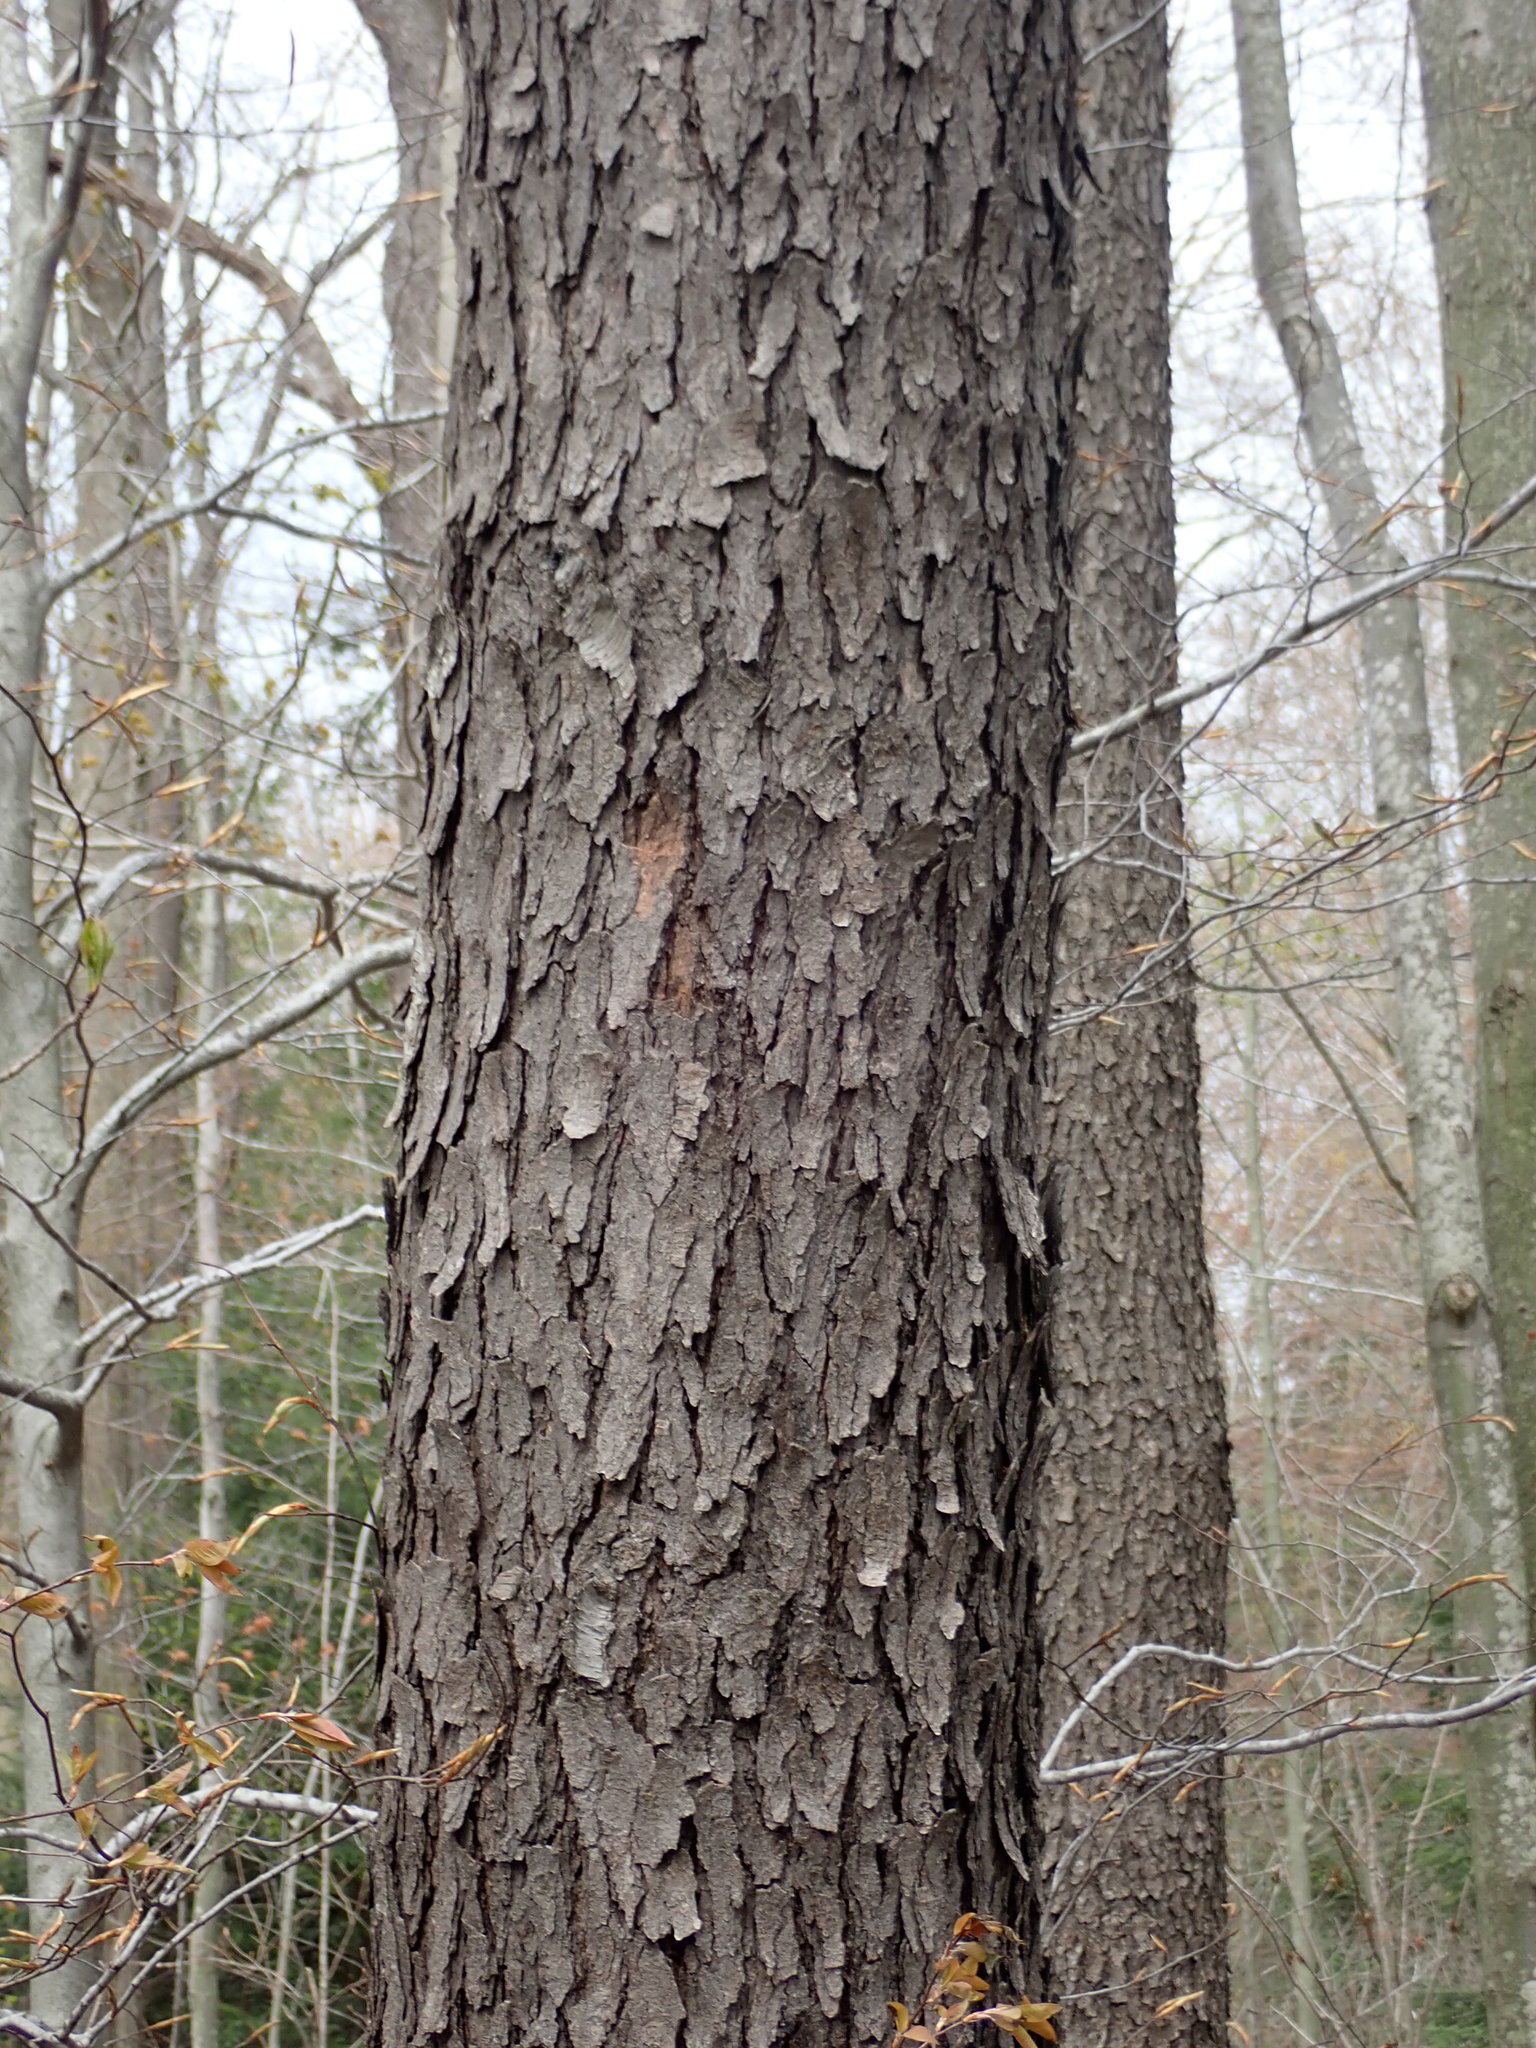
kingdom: Plantae
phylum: Tracheophyta
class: Magnoliopsida
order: Rosales
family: Rosaceae
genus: Prunus
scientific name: Prunus serotina
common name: Black cherry
